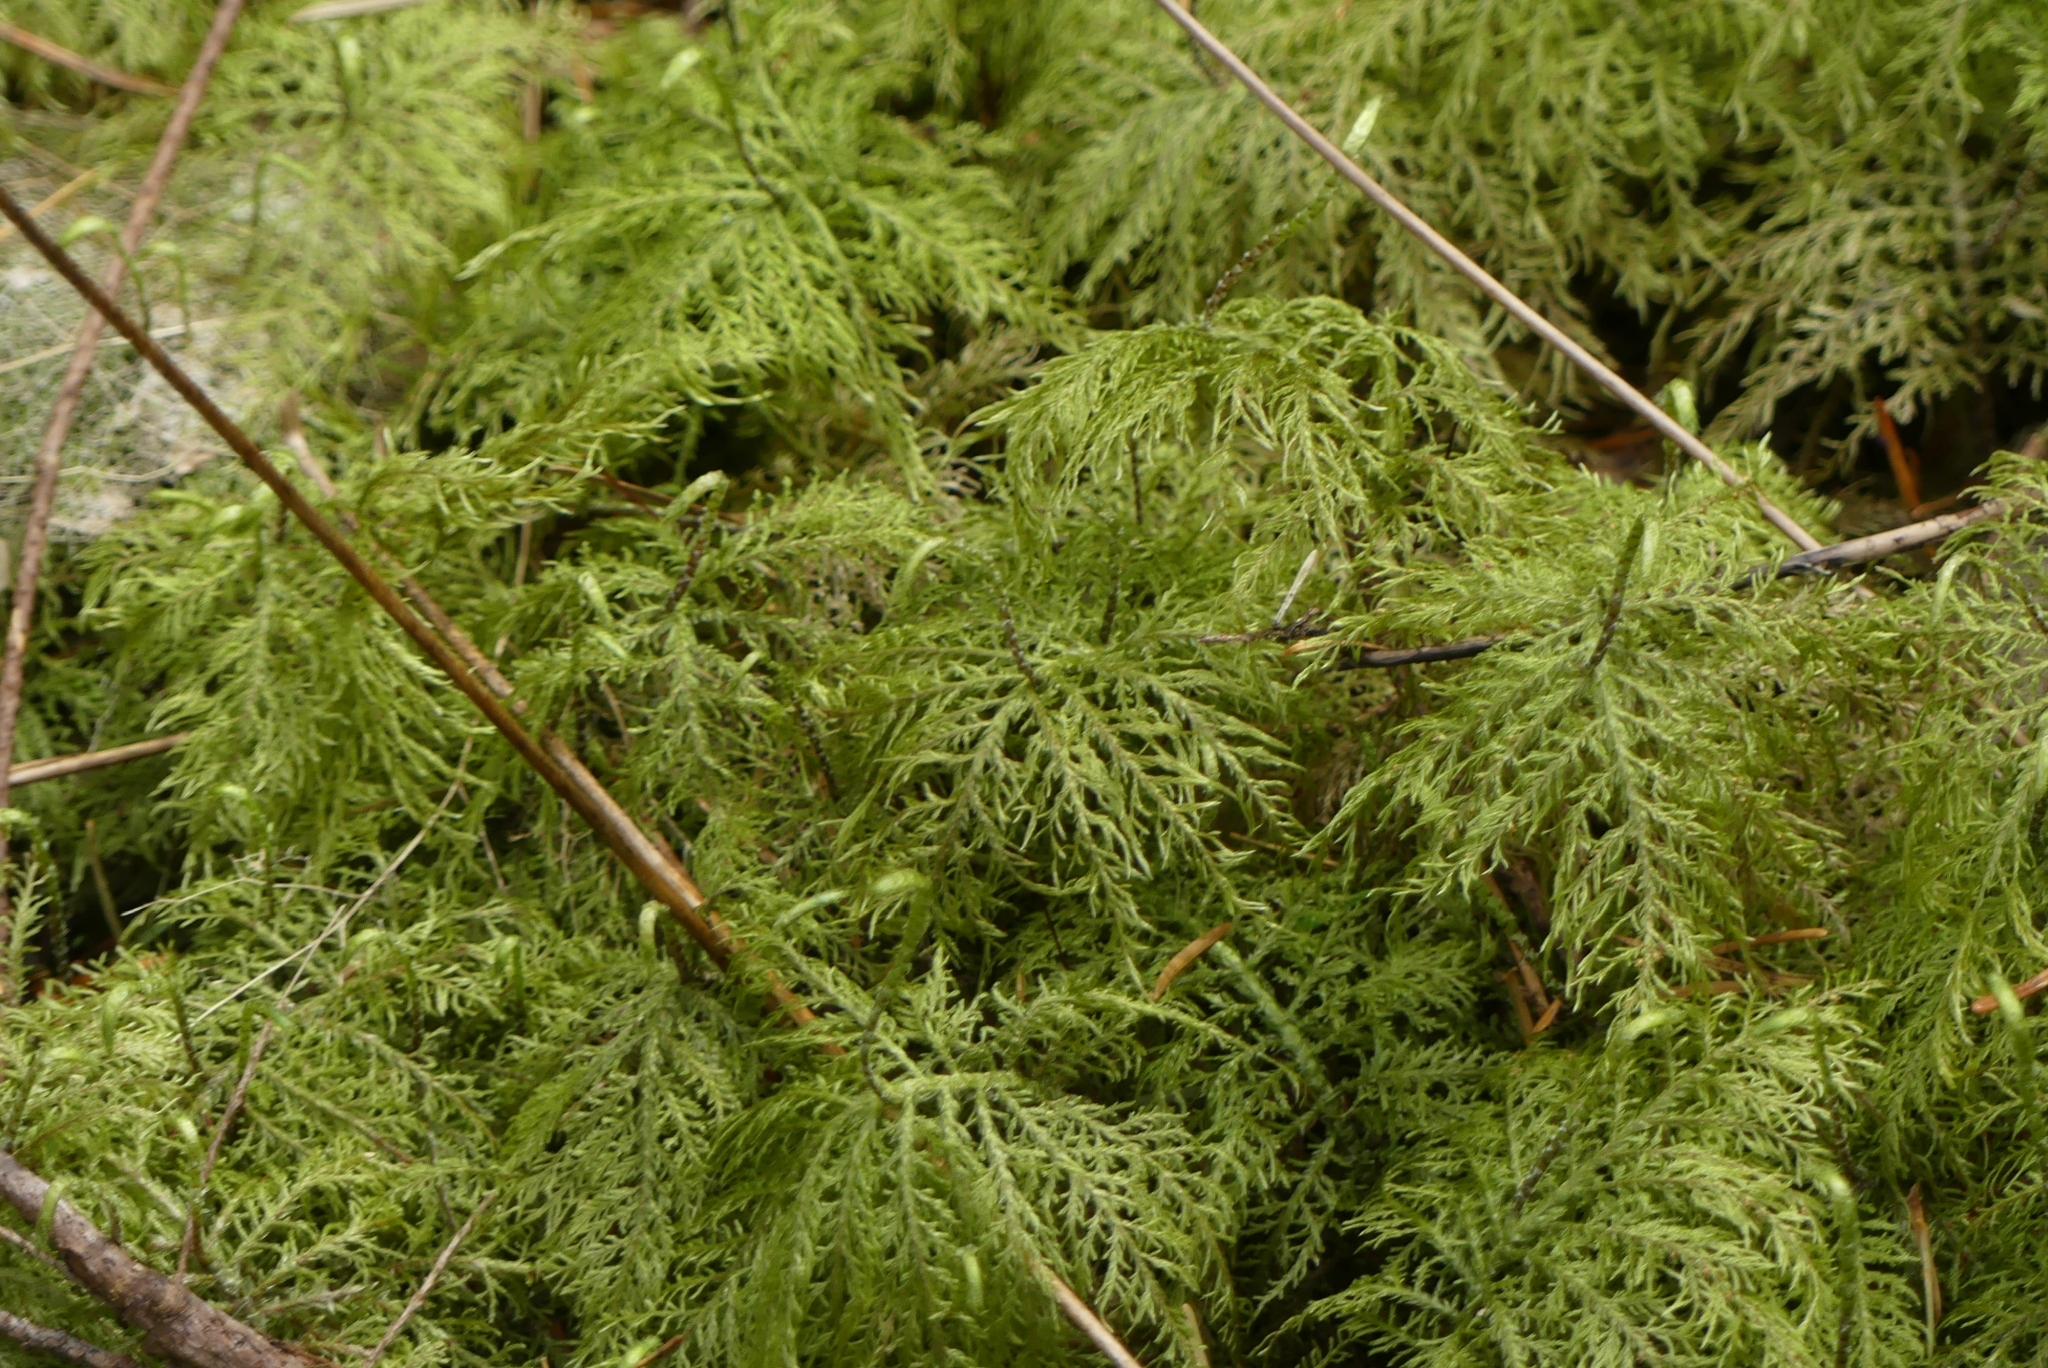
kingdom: Plantae
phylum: Bryophyta
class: Bryopsida
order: Hypnales
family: Hylocomiaceae
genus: Hylocomium
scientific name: Hylocomium splendens
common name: Stairstep moss
